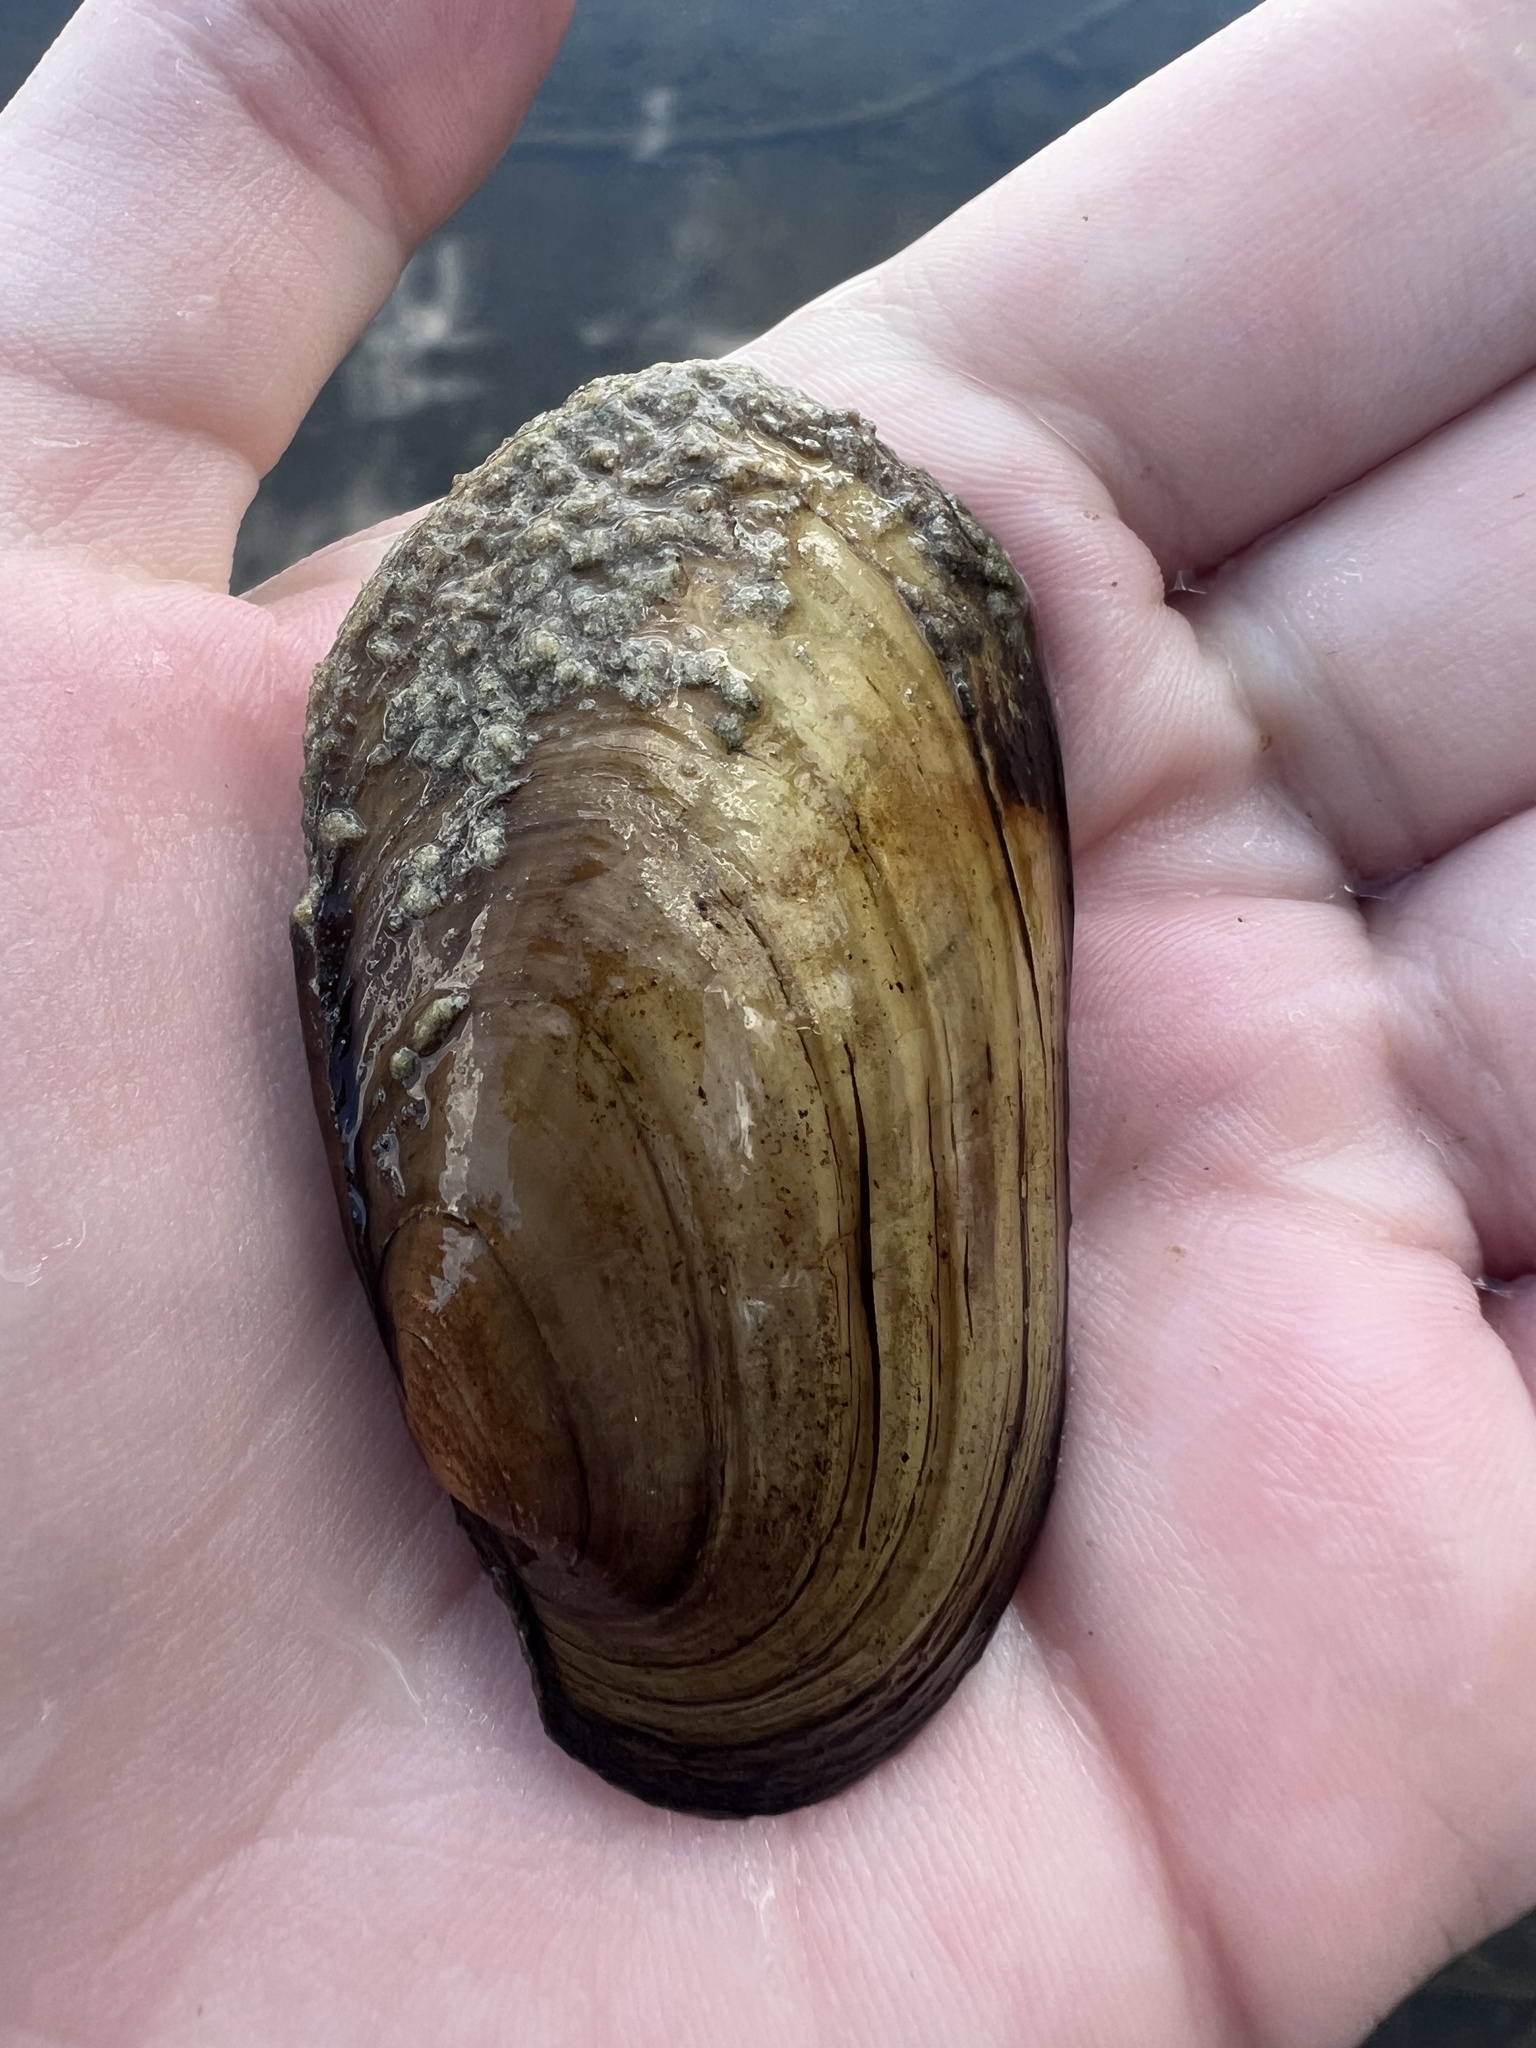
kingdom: Animalia
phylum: Mollusca
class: Bivalvia
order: Unionida
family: Unionidae
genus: Lampsilis
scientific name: Lampsilis siliquoidea
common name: Fatmucket
